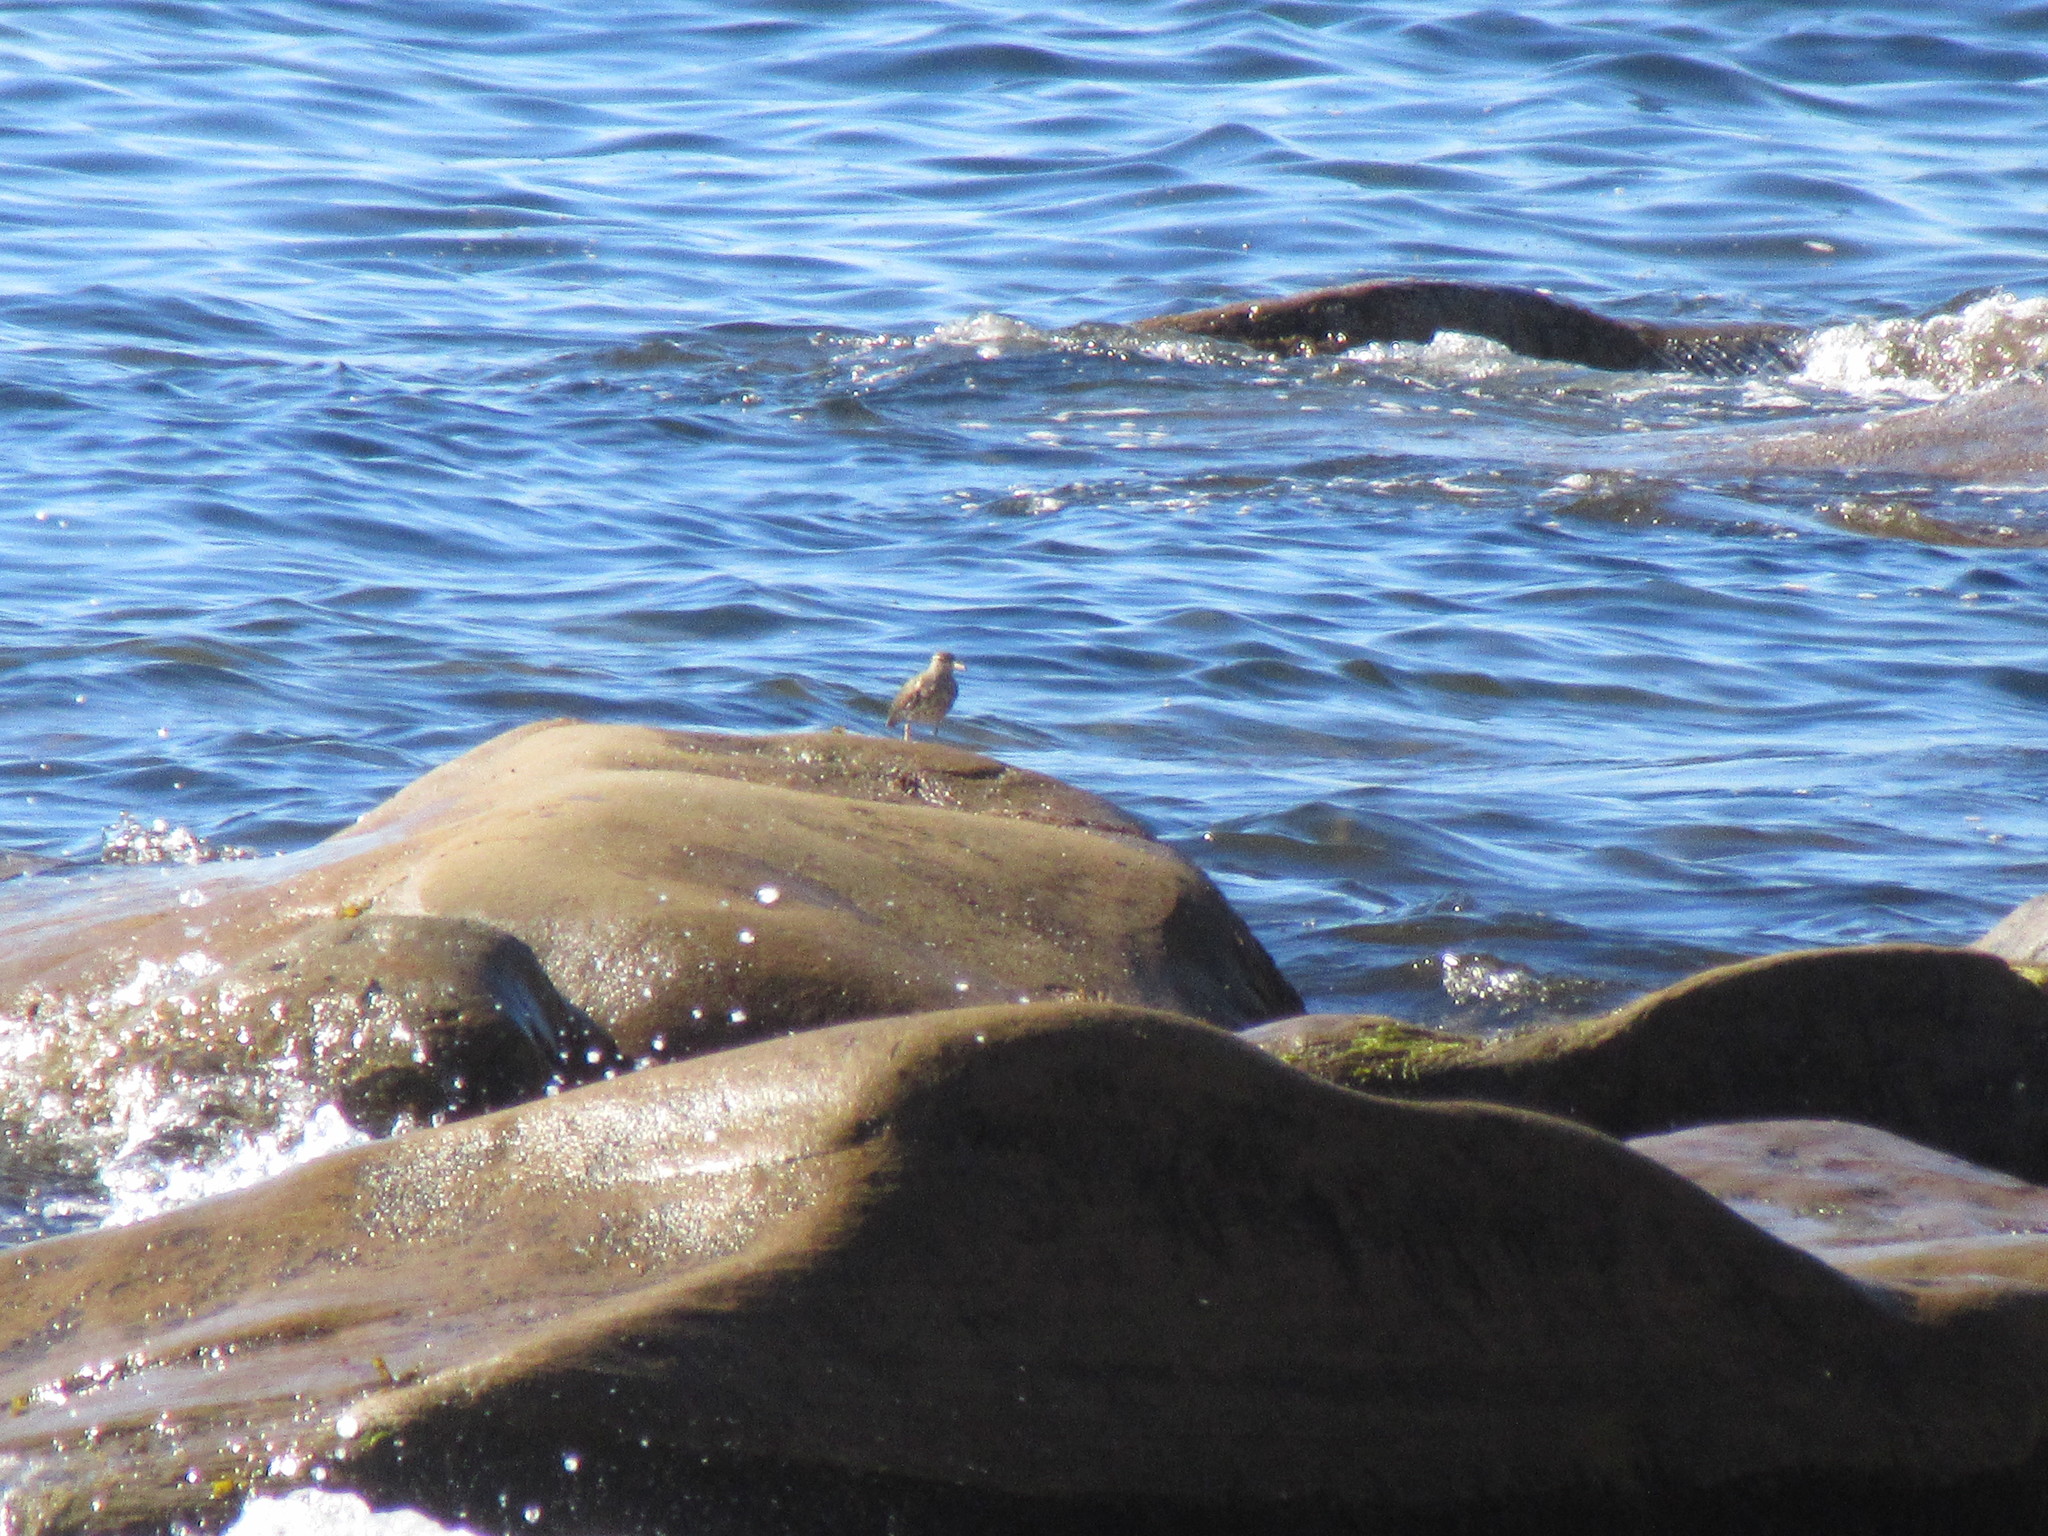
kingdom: Animalia
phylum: Chordata
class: Aves
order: Charadriiformes
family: Scolopacidae
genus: Actitis
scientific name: Actitis macularius
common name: Spotted sandpiper
